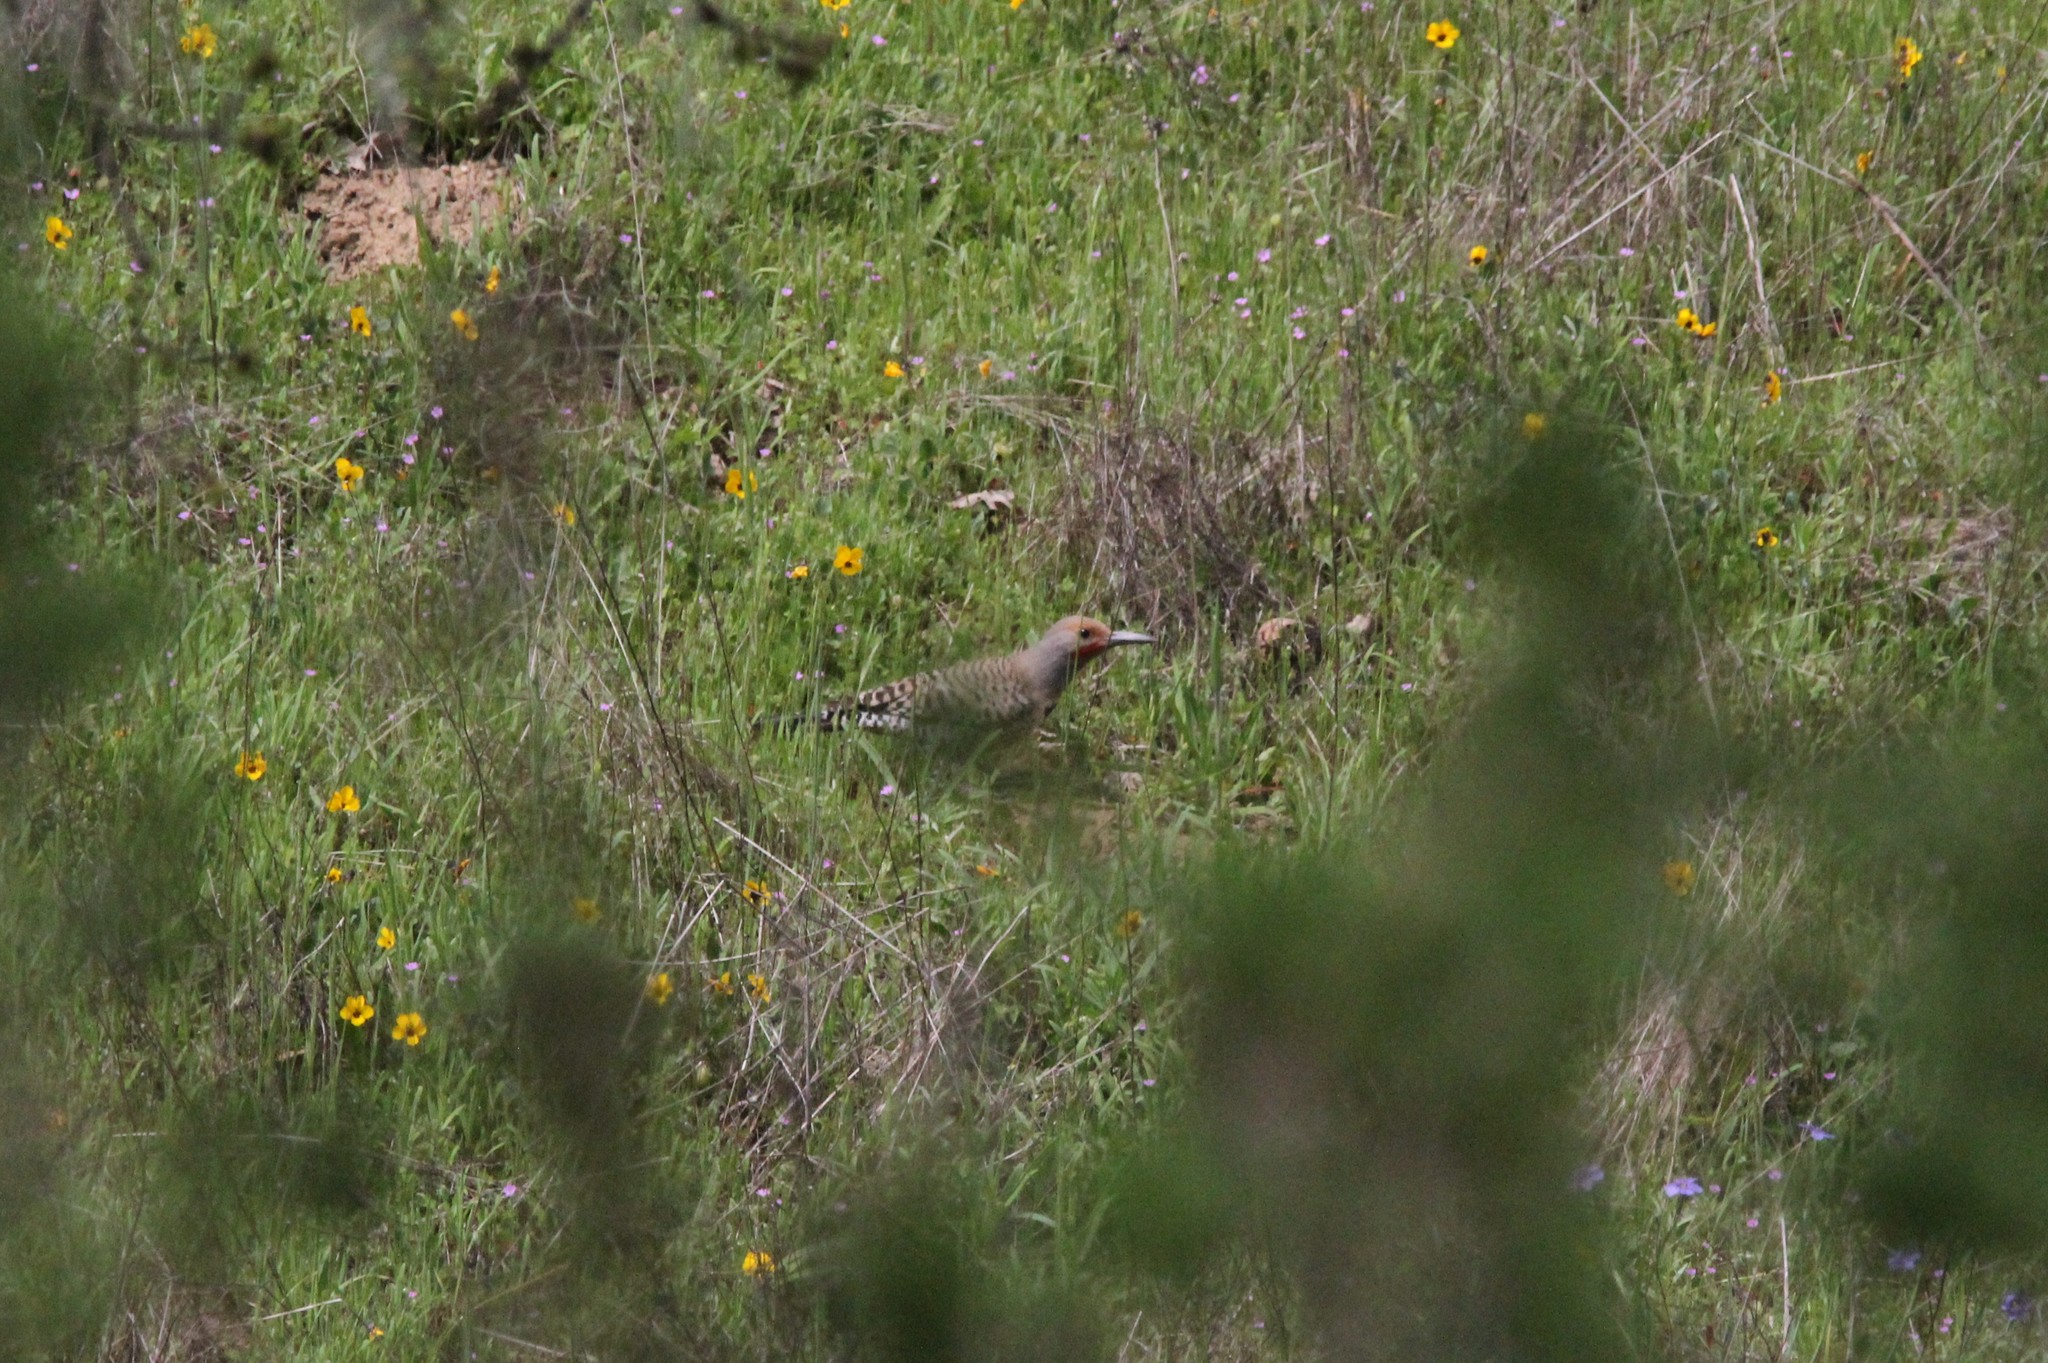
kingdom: Animalia
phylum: Chordata
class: Aves
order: Piciformes
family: Picidae
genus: Colaptes
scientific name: Colaptes auratus
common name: Northern flicker
